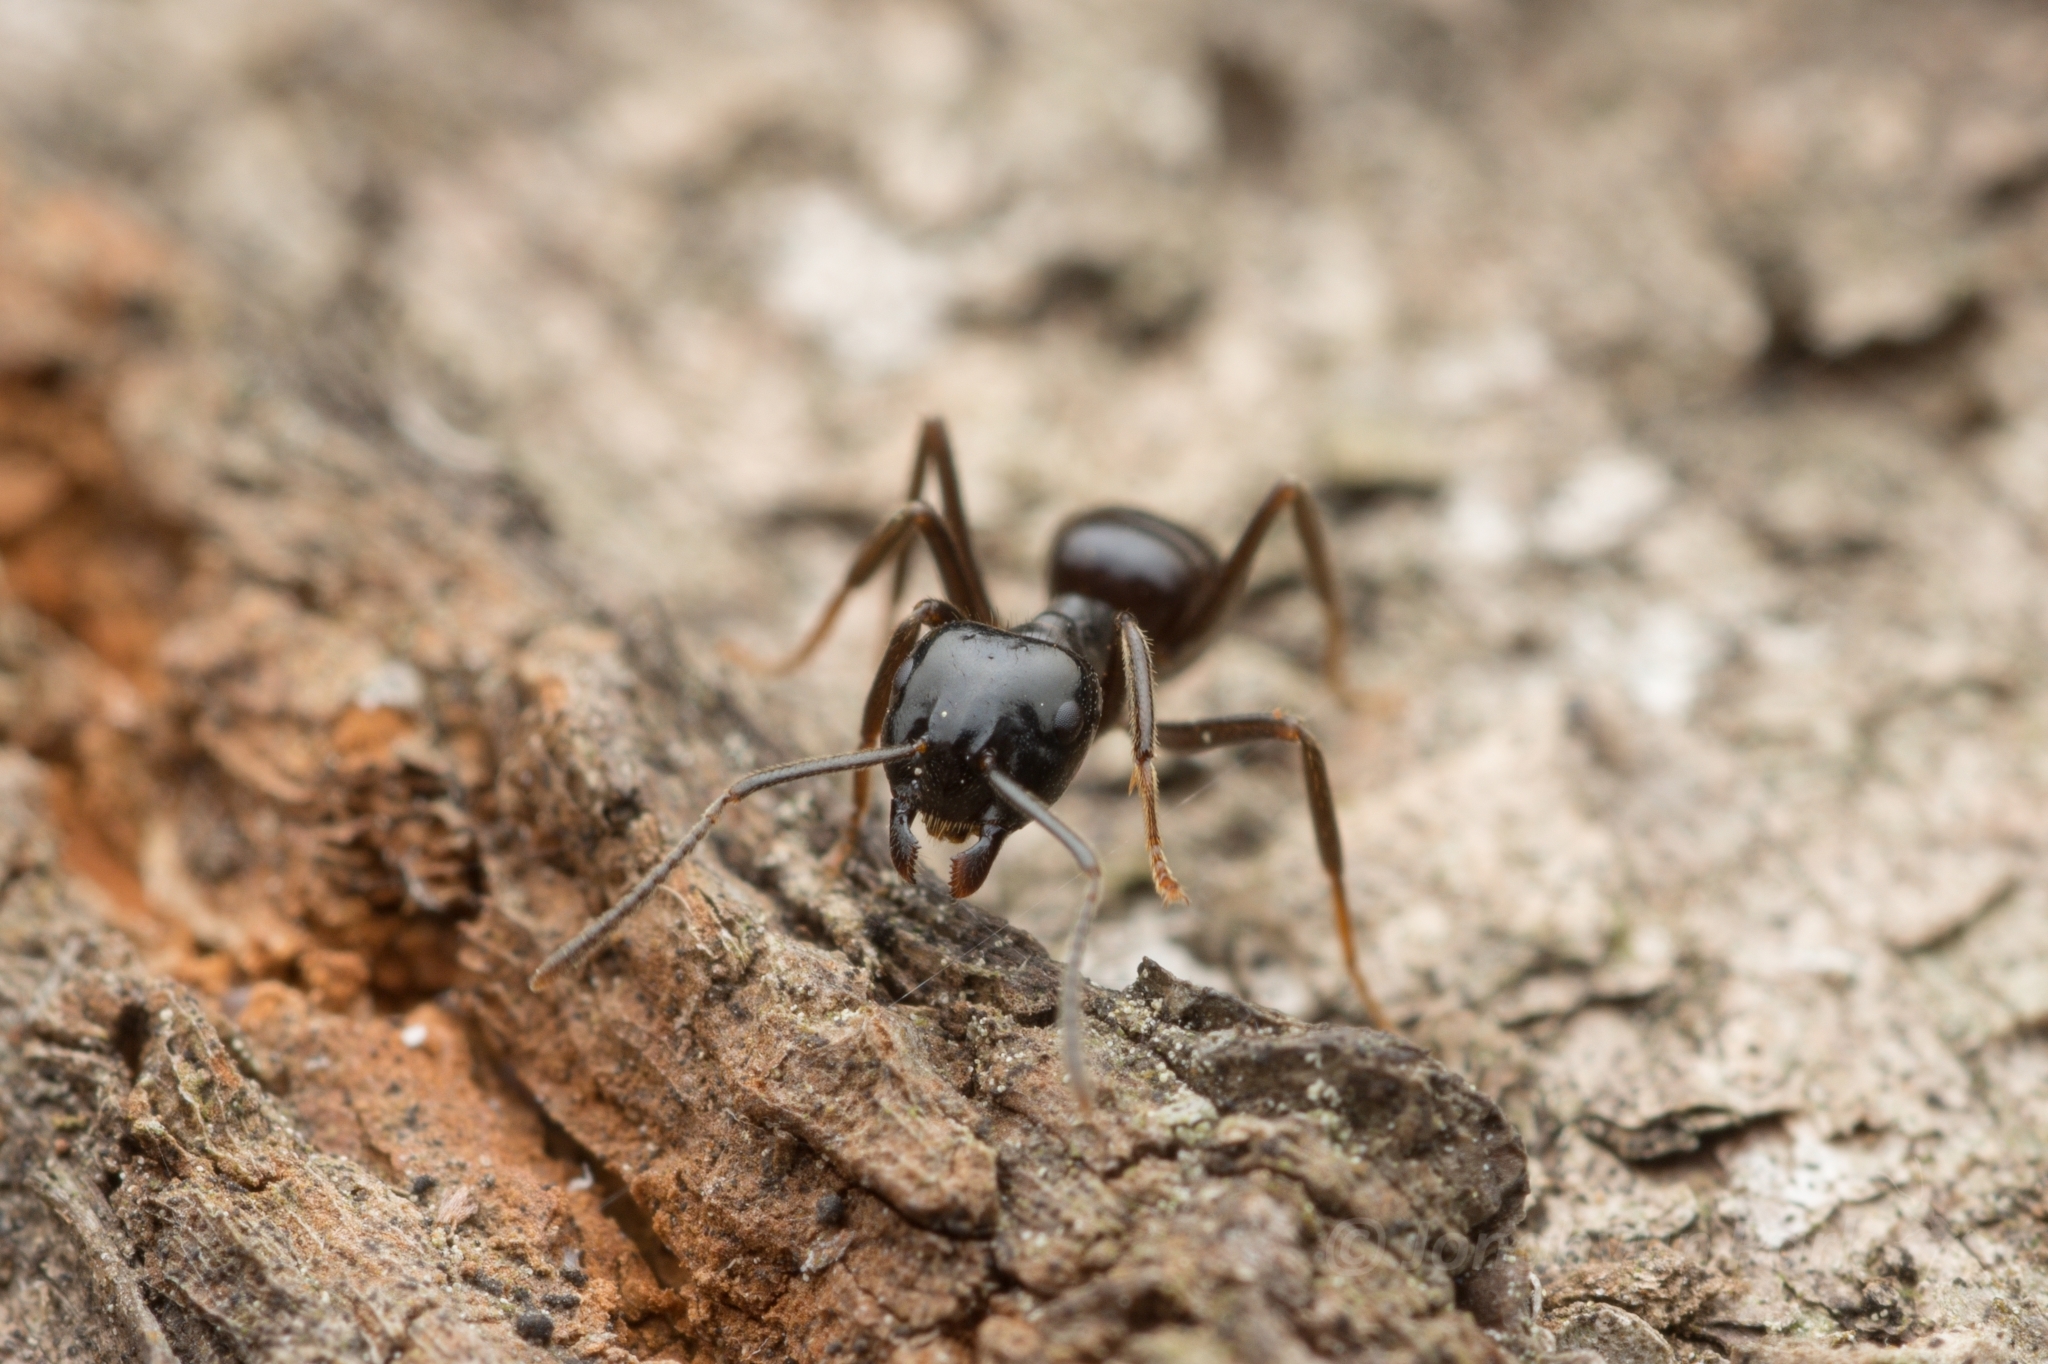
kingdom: Animalia
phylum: Arthropoda
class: Insecta
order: Hymenoptera
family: Formicidae
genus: Lasius
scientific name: Lasius spathepus
